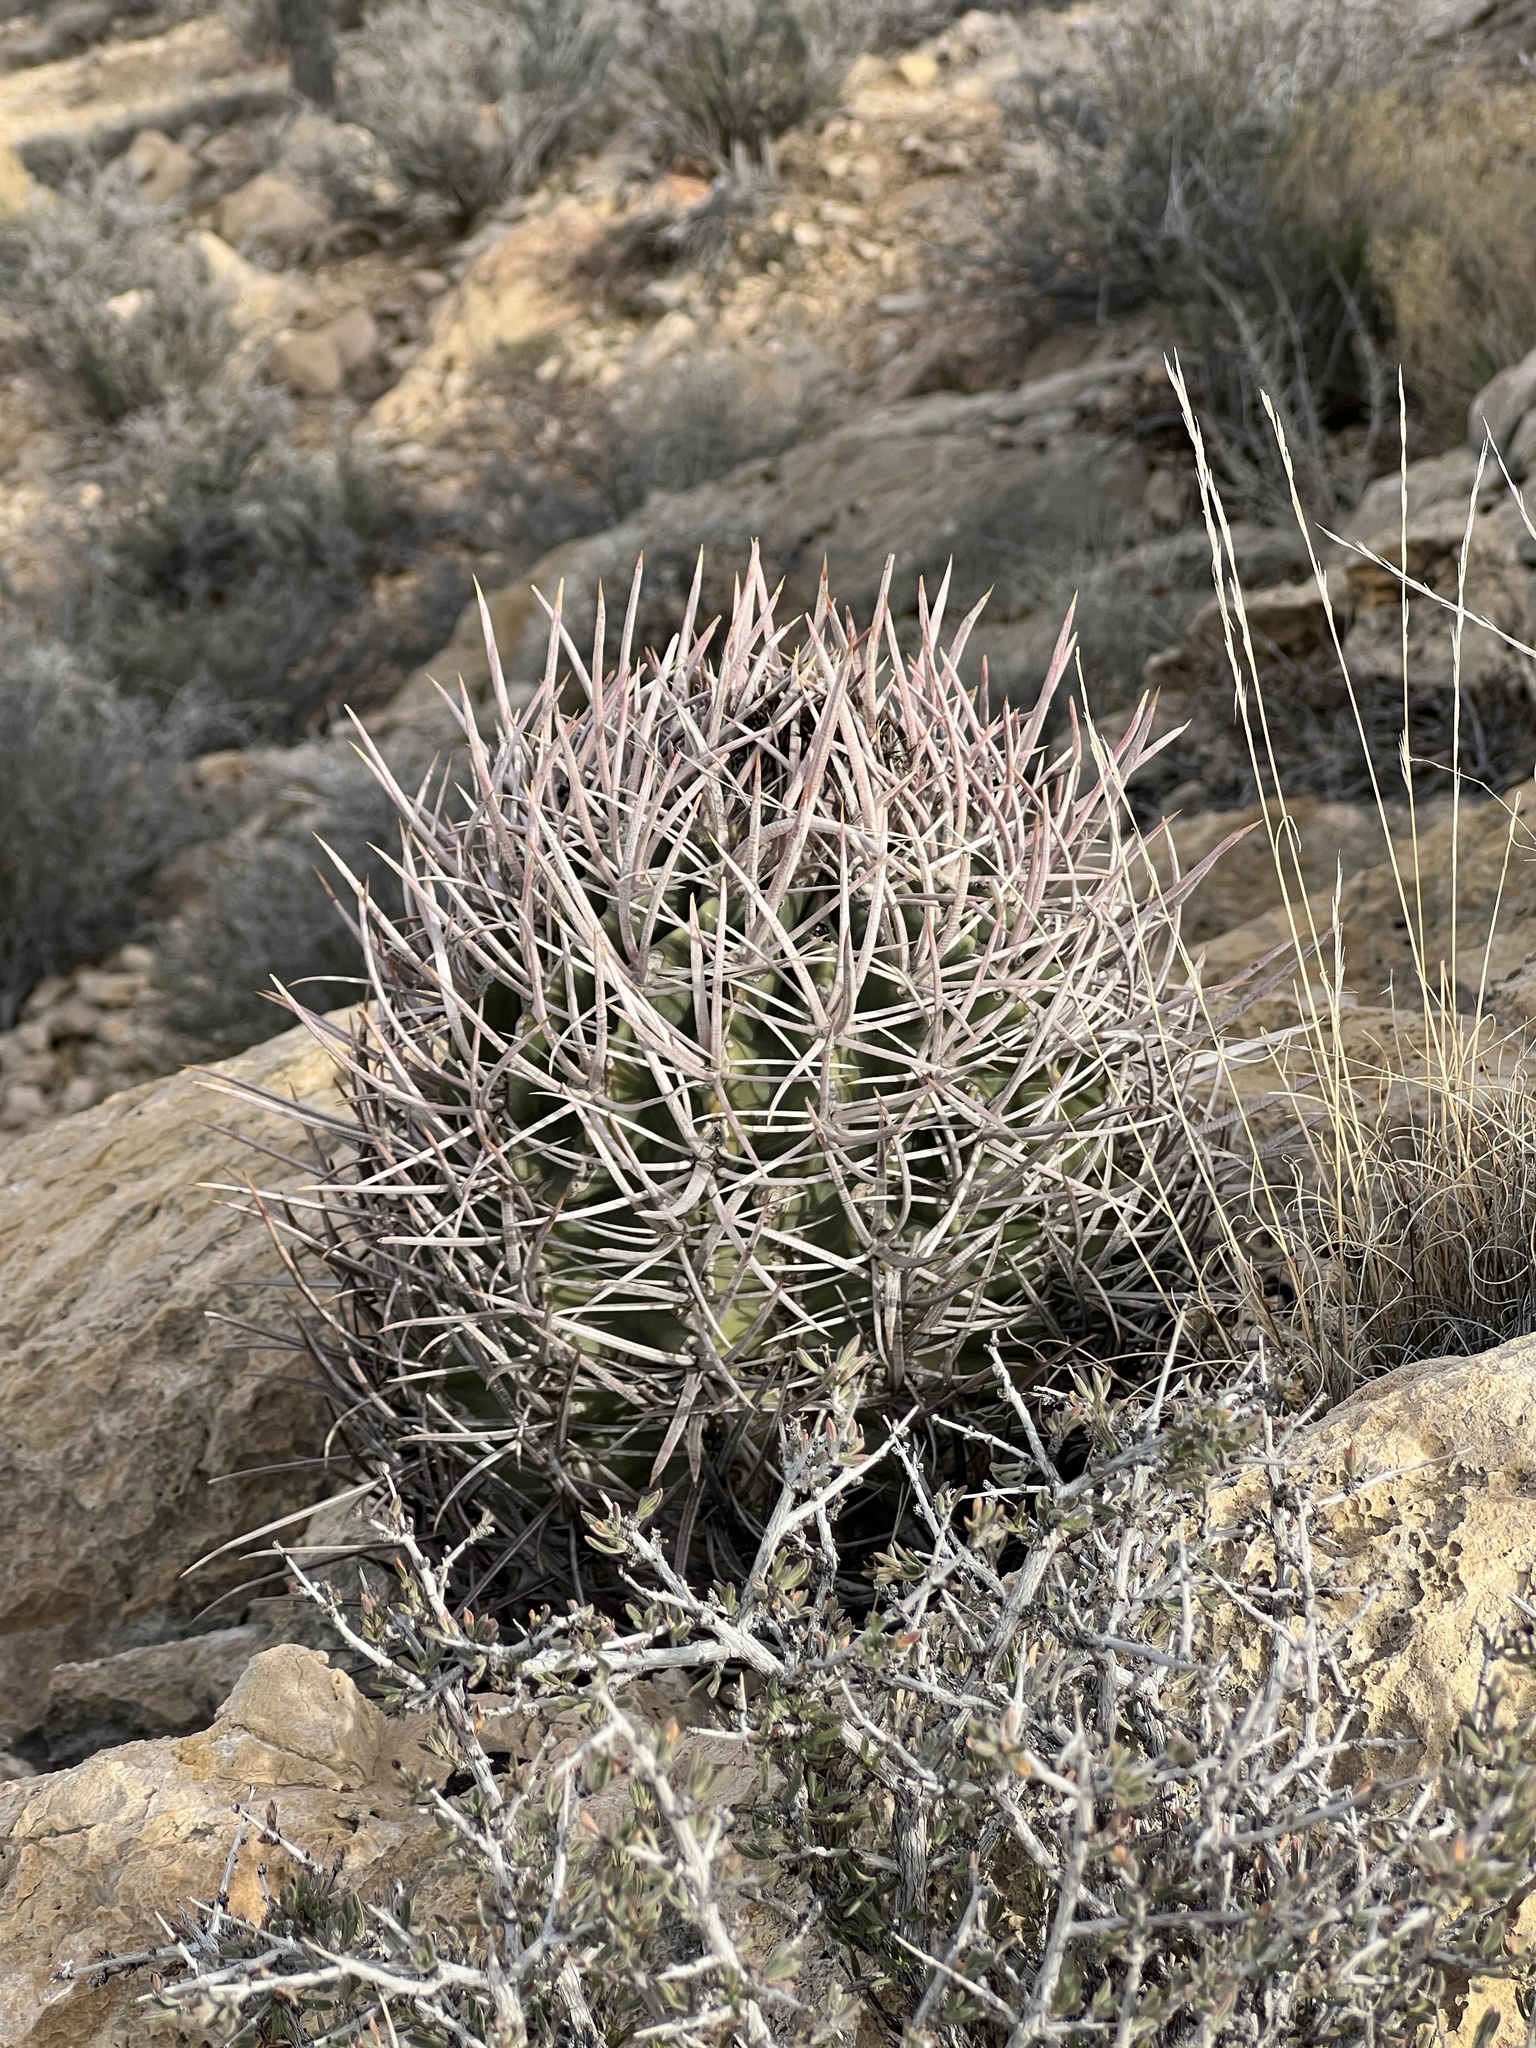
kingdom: Plantae
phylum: Tracheophyta
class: Magnoliopsida
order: Caryophyllales
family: Cactaceae
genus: Echinocactus
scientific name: Echinocactus polycephalus
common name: Cottontop cactus
